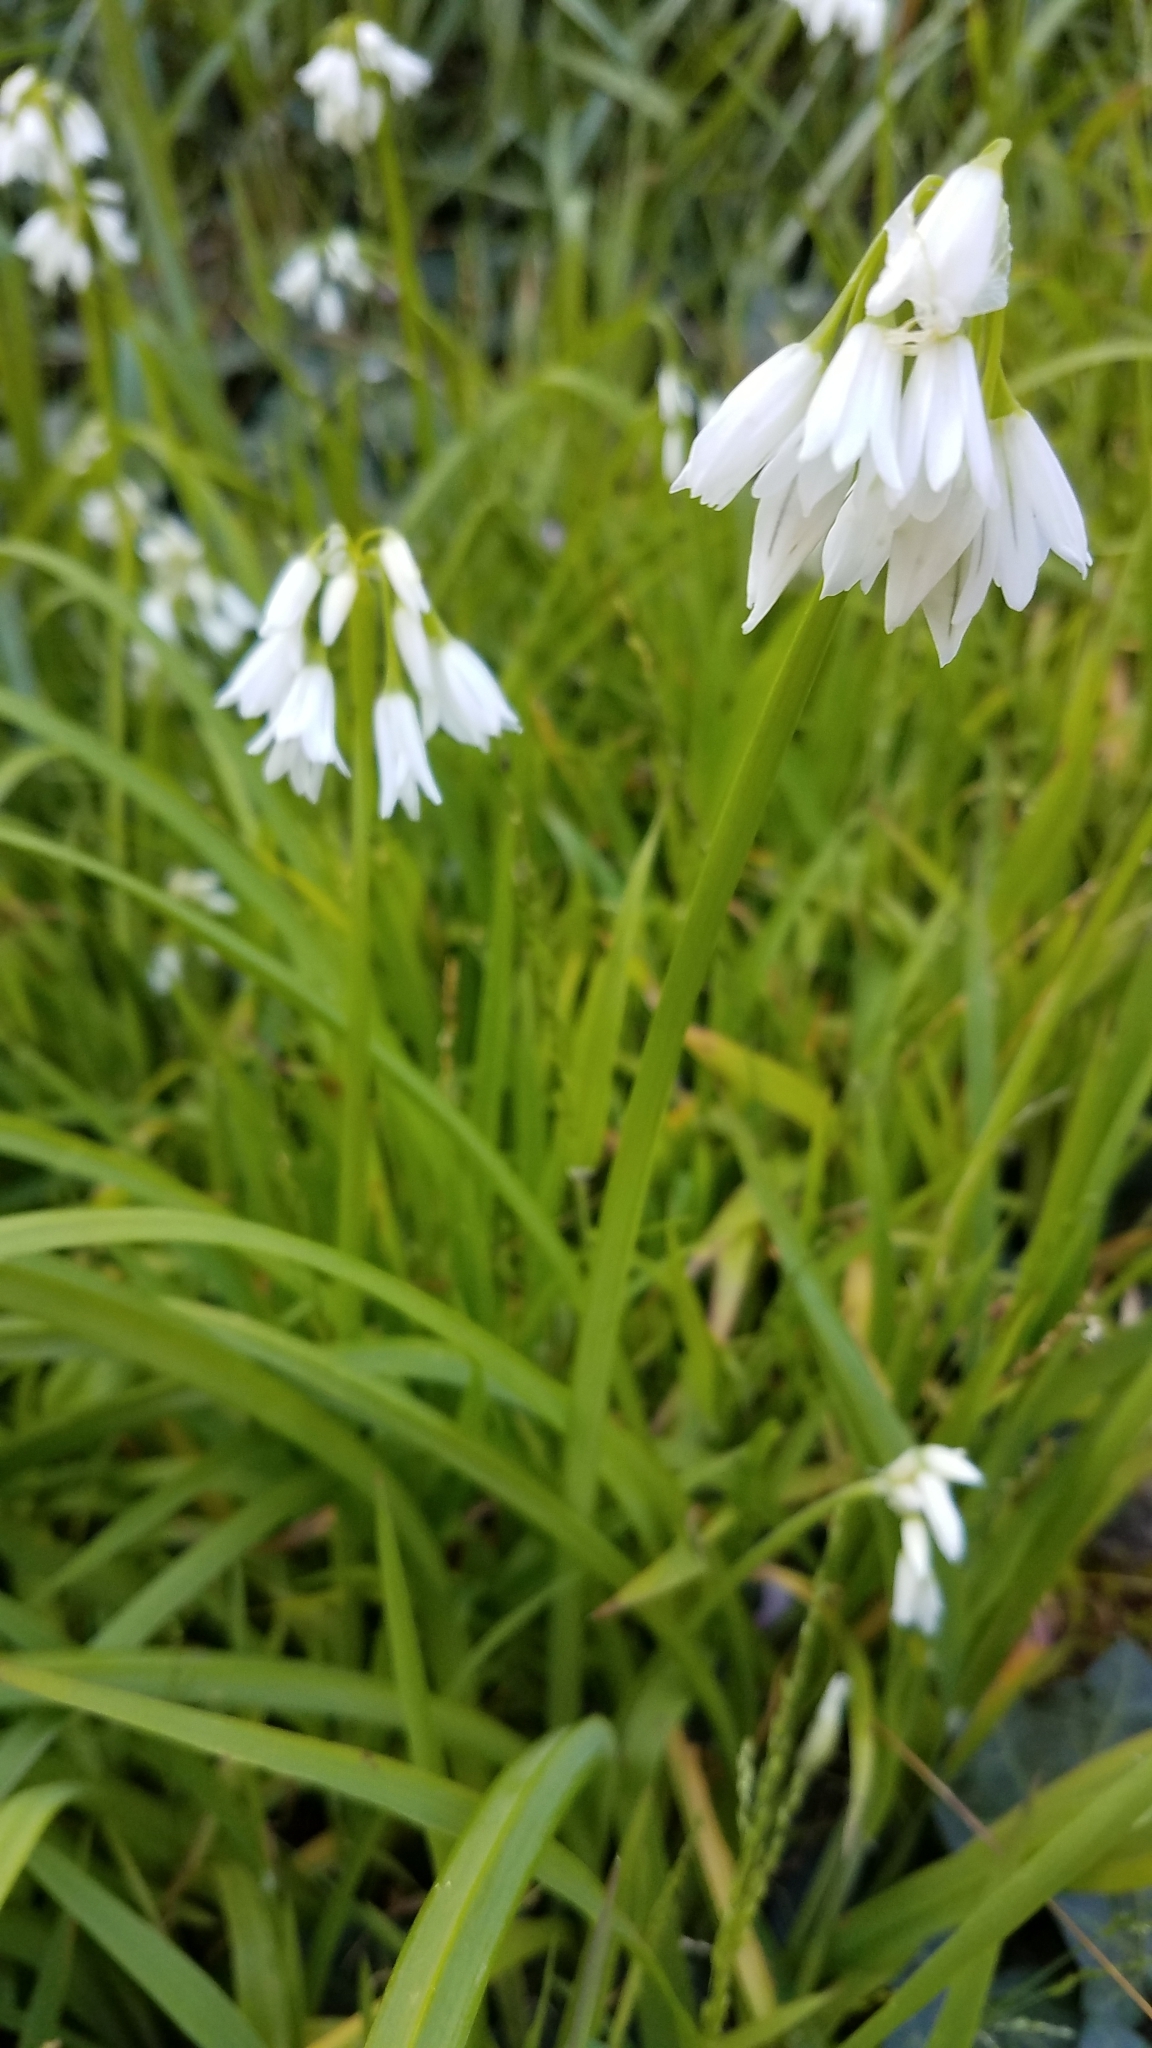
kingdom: Plantae
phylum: Tracheophyta
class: Liliopsida
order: Asparagales
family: Amaryllidaceae
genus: Allium
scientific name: Allium triquetrum
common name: Three-cornered garlic
